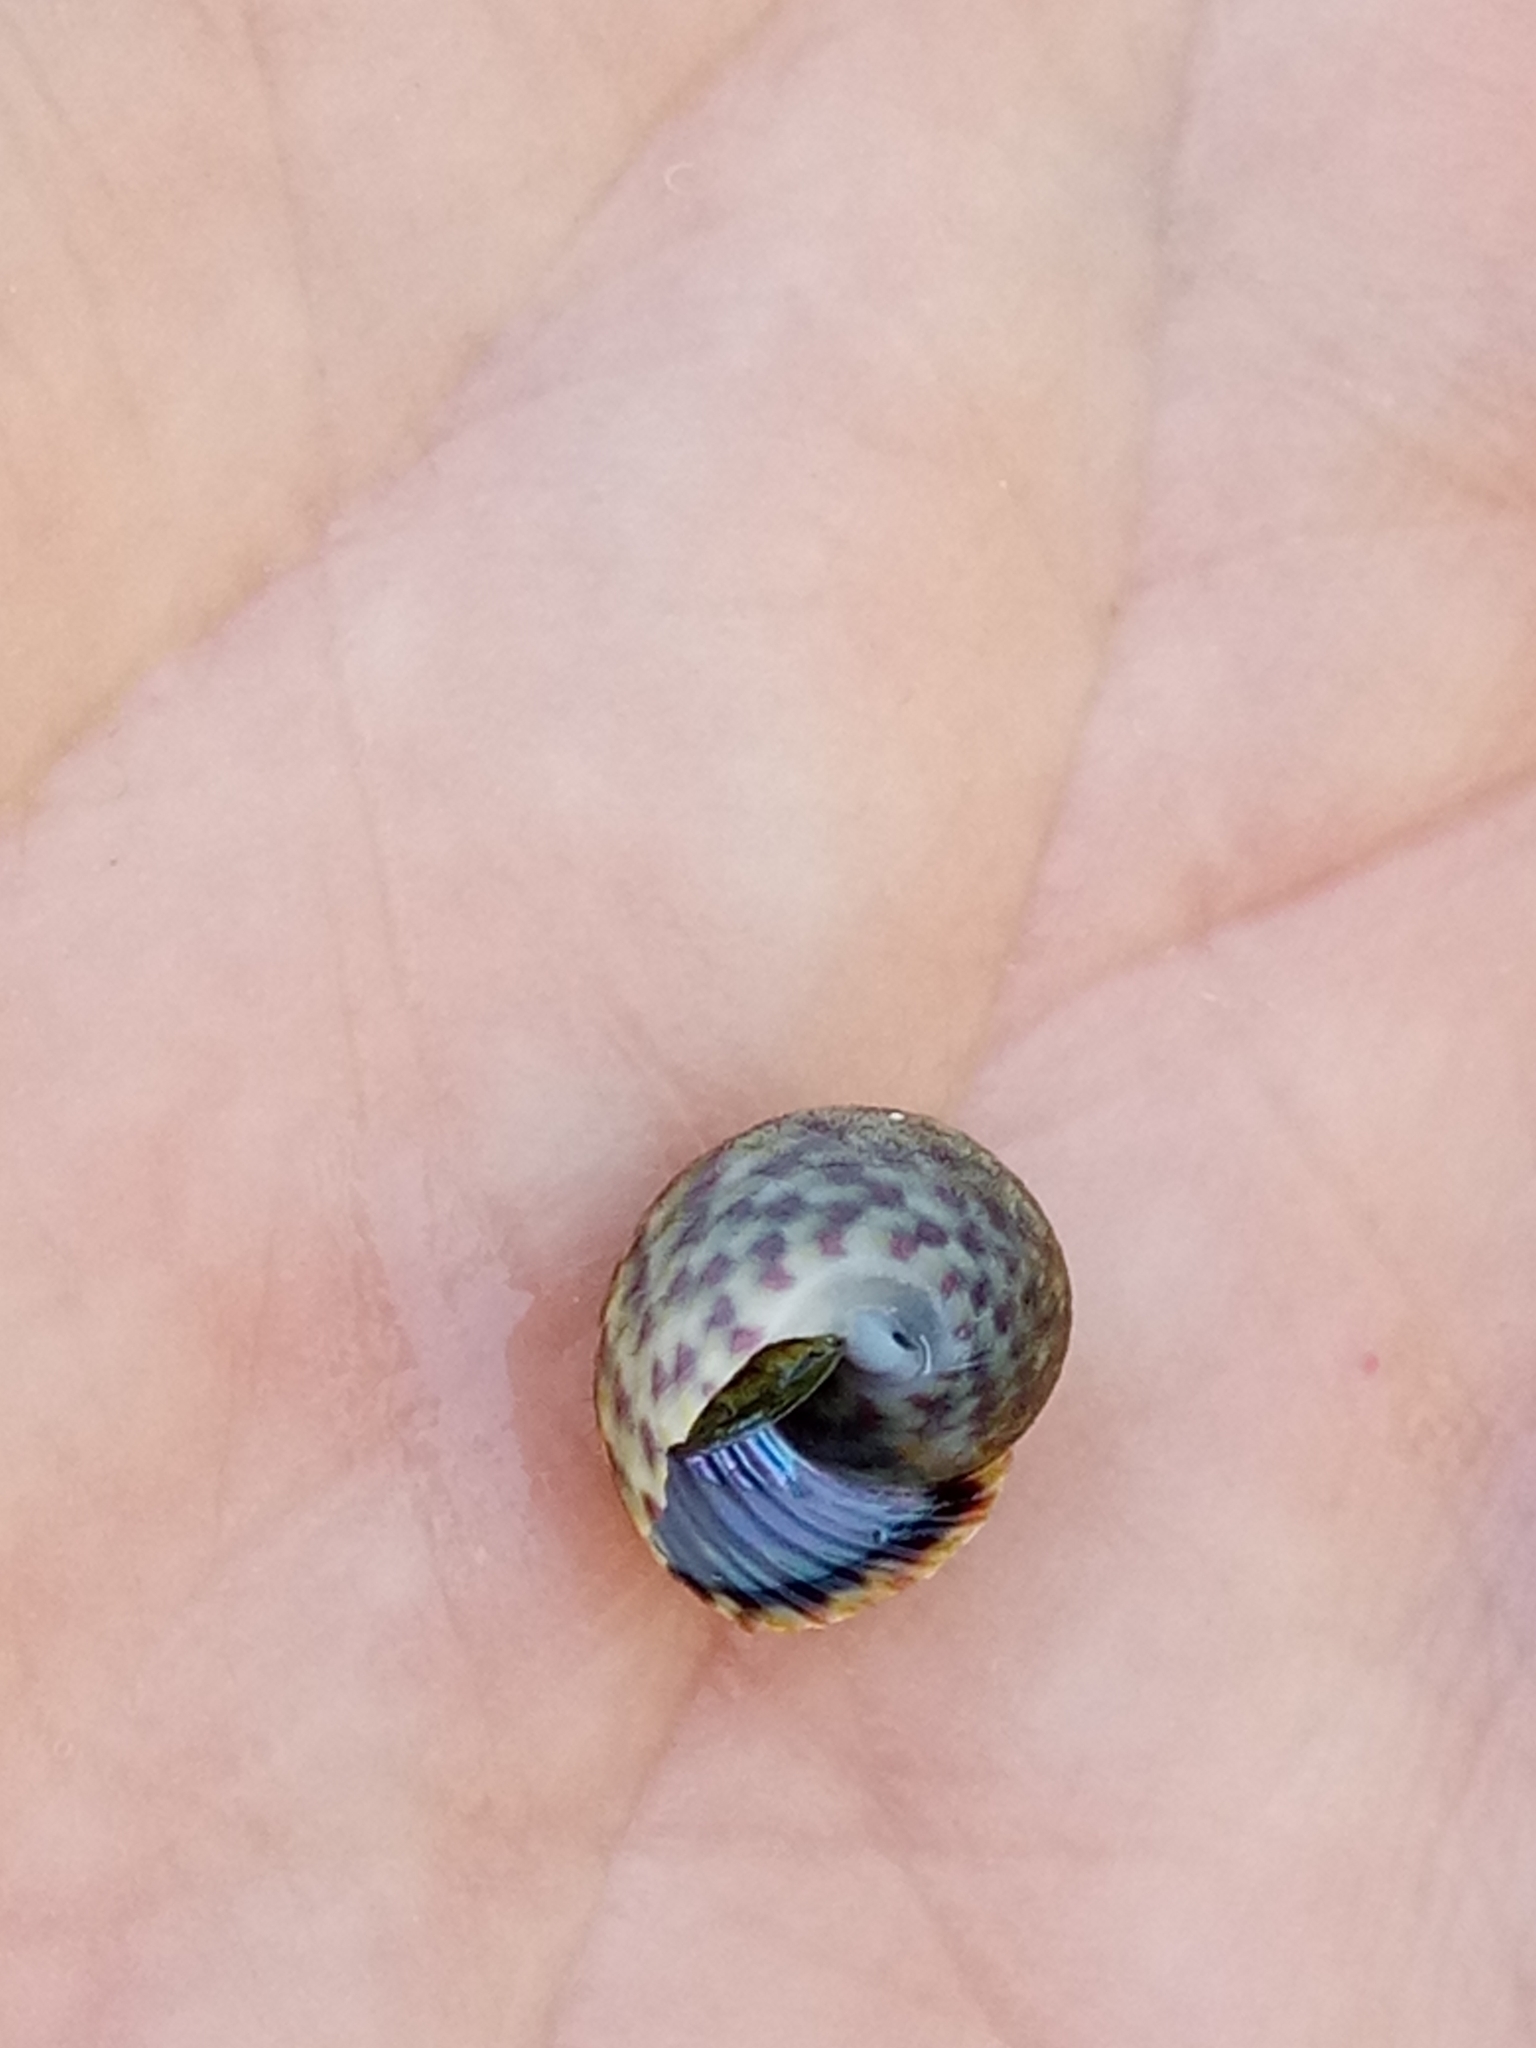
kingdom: Animalia
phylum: Mollusca
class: Gastropoda
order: Trochida
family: Trochidae
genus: Phorcus
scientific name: Phorcus turbinatus
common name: Turbinate monodont
